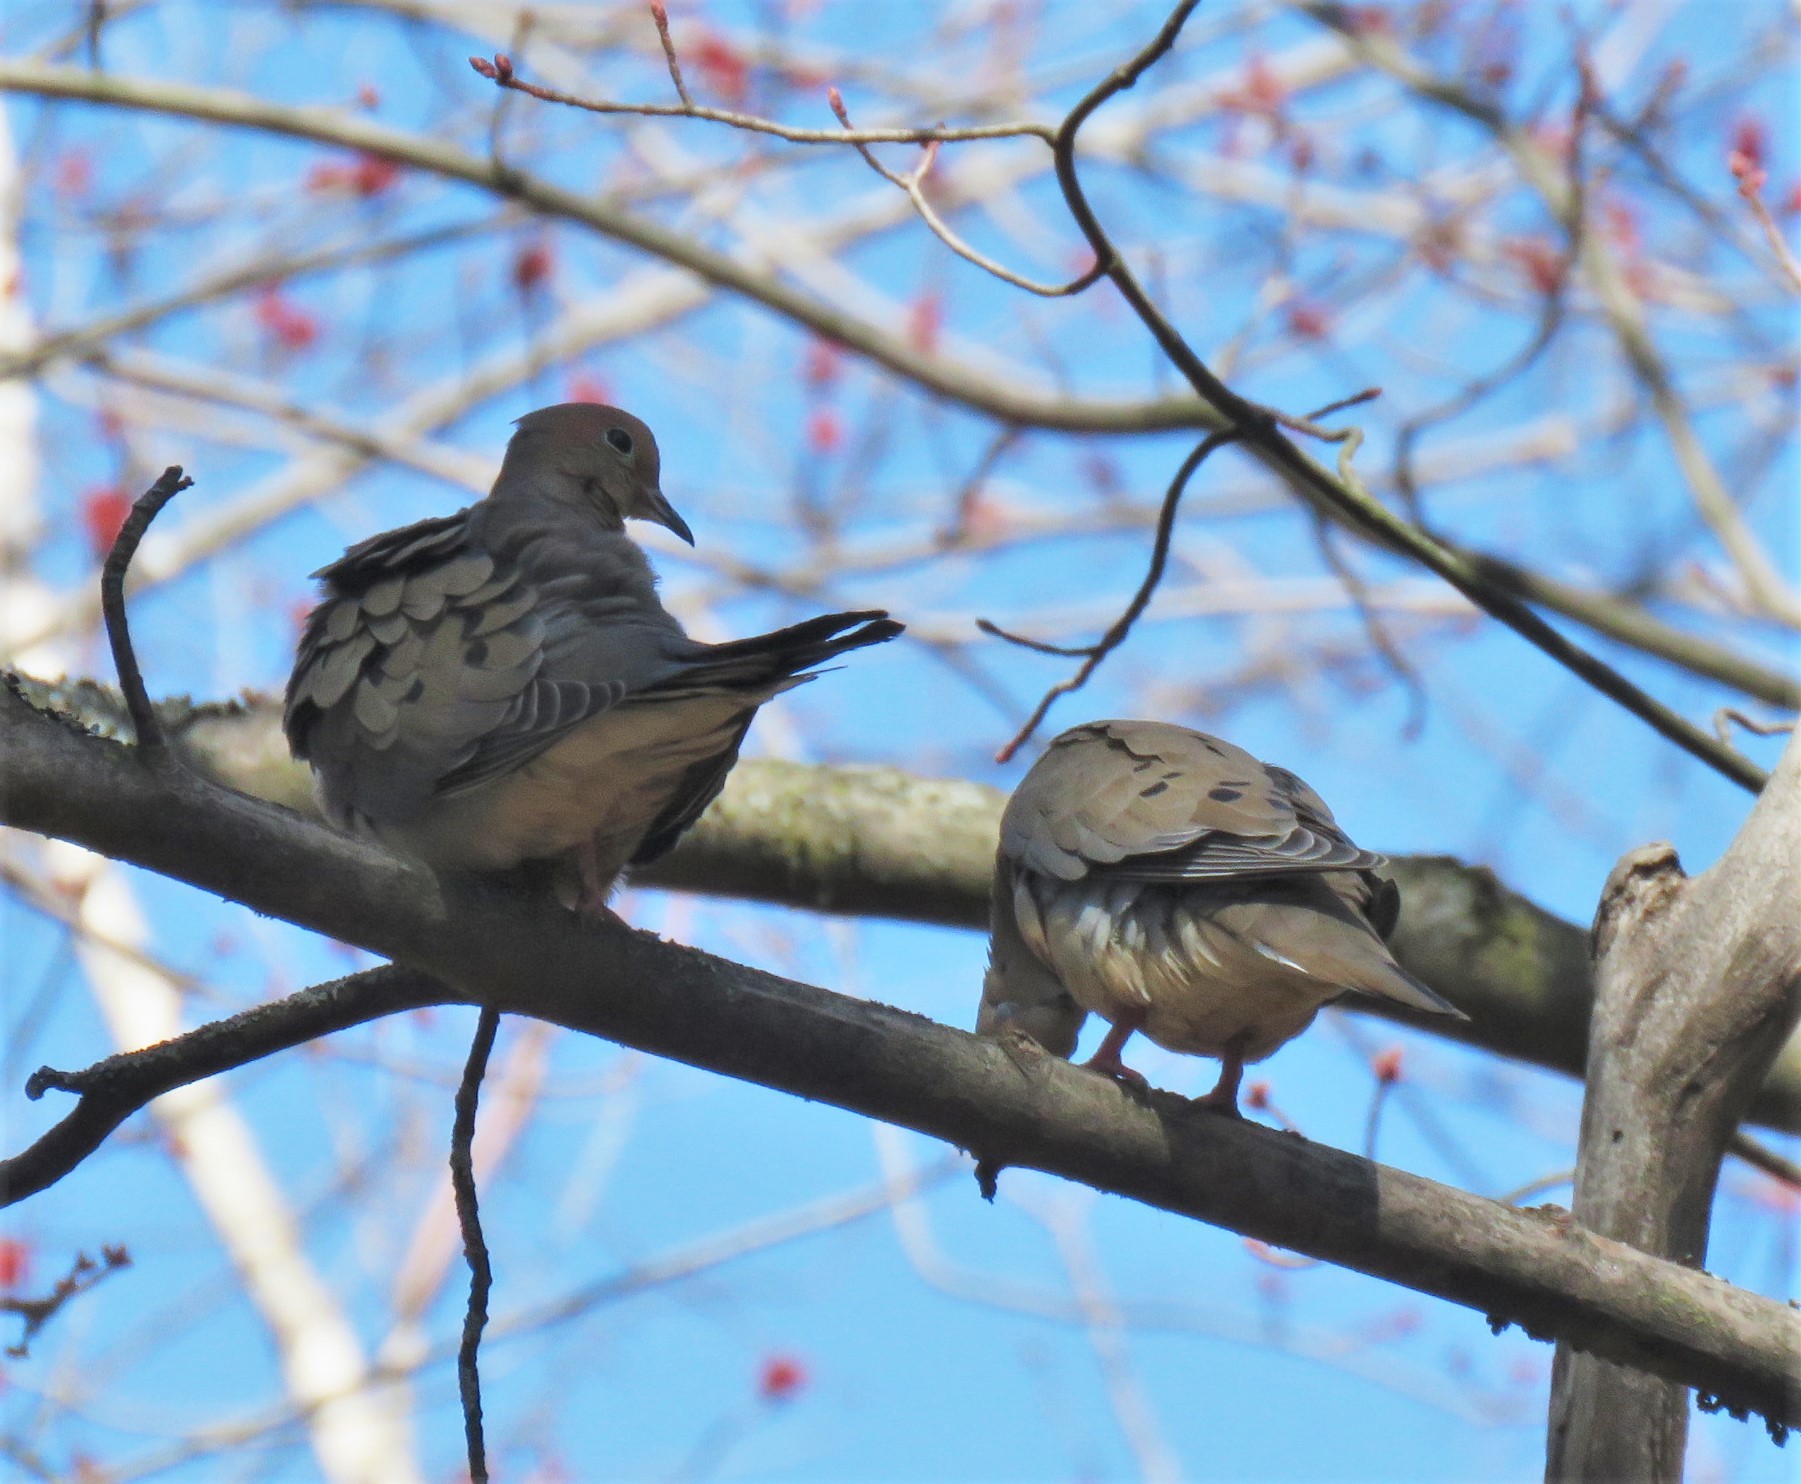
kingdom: Animalia
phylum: Chordata
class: Aves
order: Columbiformes
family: Columbidae
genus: Zenaida
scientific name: Zenaida macroura
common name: Mourning dove
